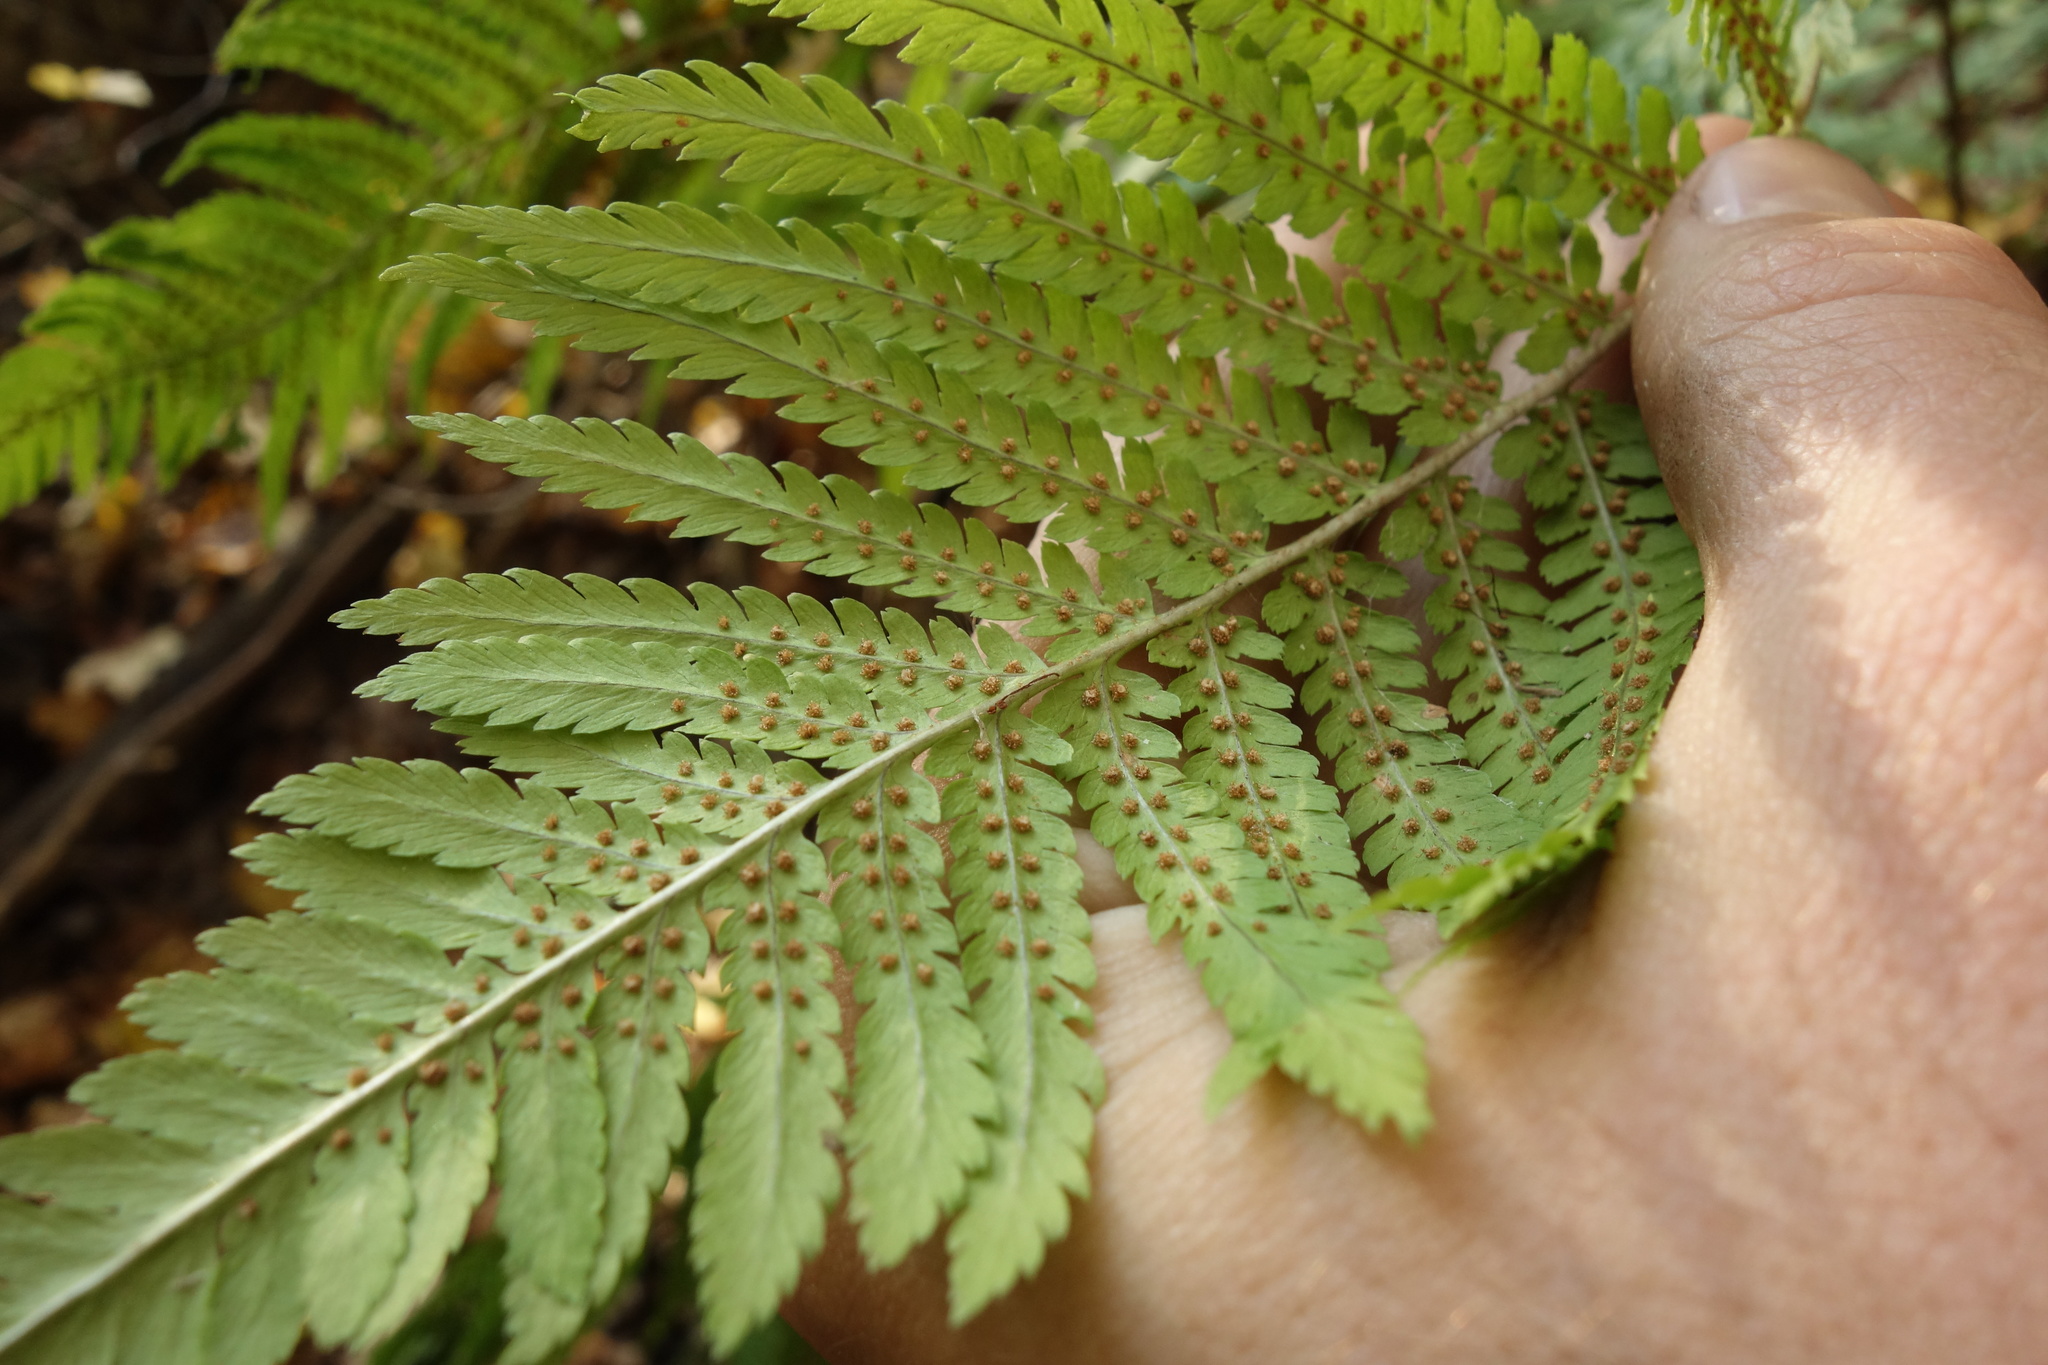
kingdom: Plantae
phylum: Tracheophyta
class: Polypodiopsida
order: Polypodiales
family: Dryopteridaceae
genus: Dryopteris
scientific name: Dryopteris filix-mas
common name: Male fern
